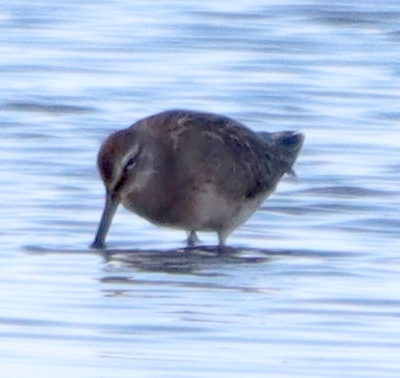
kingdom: Animalia
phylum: Chordata
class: Aves
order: Charadriiformes
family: Scolopacidae
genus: Limnodromus
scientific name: Limnodromus scolopaceus
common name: Long-billed dowitcher
